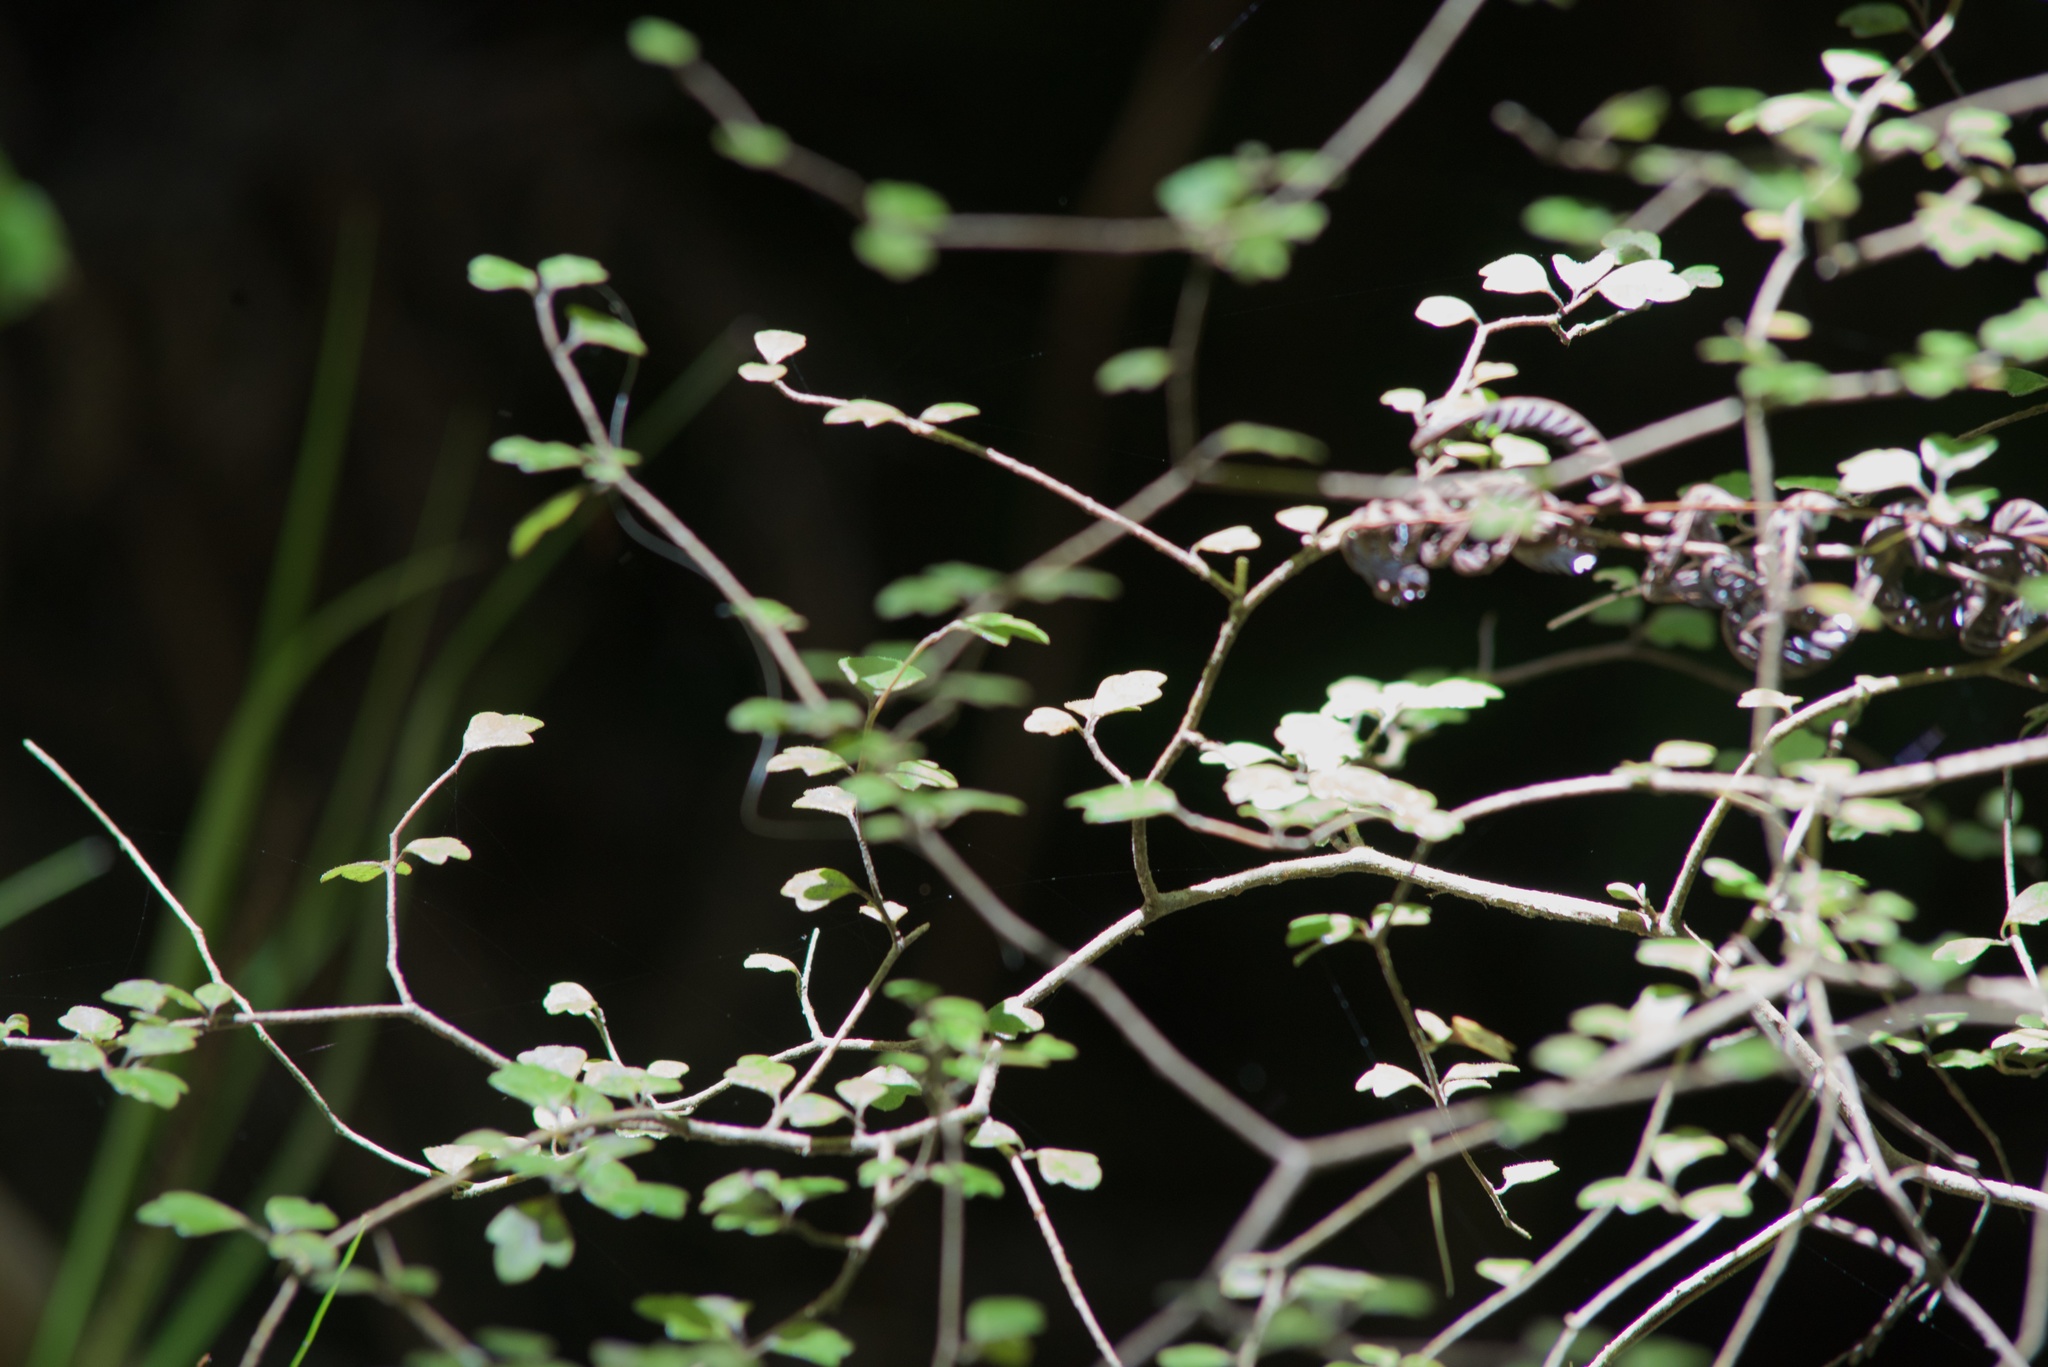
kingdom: Plantae
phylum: Tracheophyta
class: Magnoliopsida
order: Apiales
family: Pennantiaceae
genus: Pennantia
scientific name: Pennantia corymbosa
